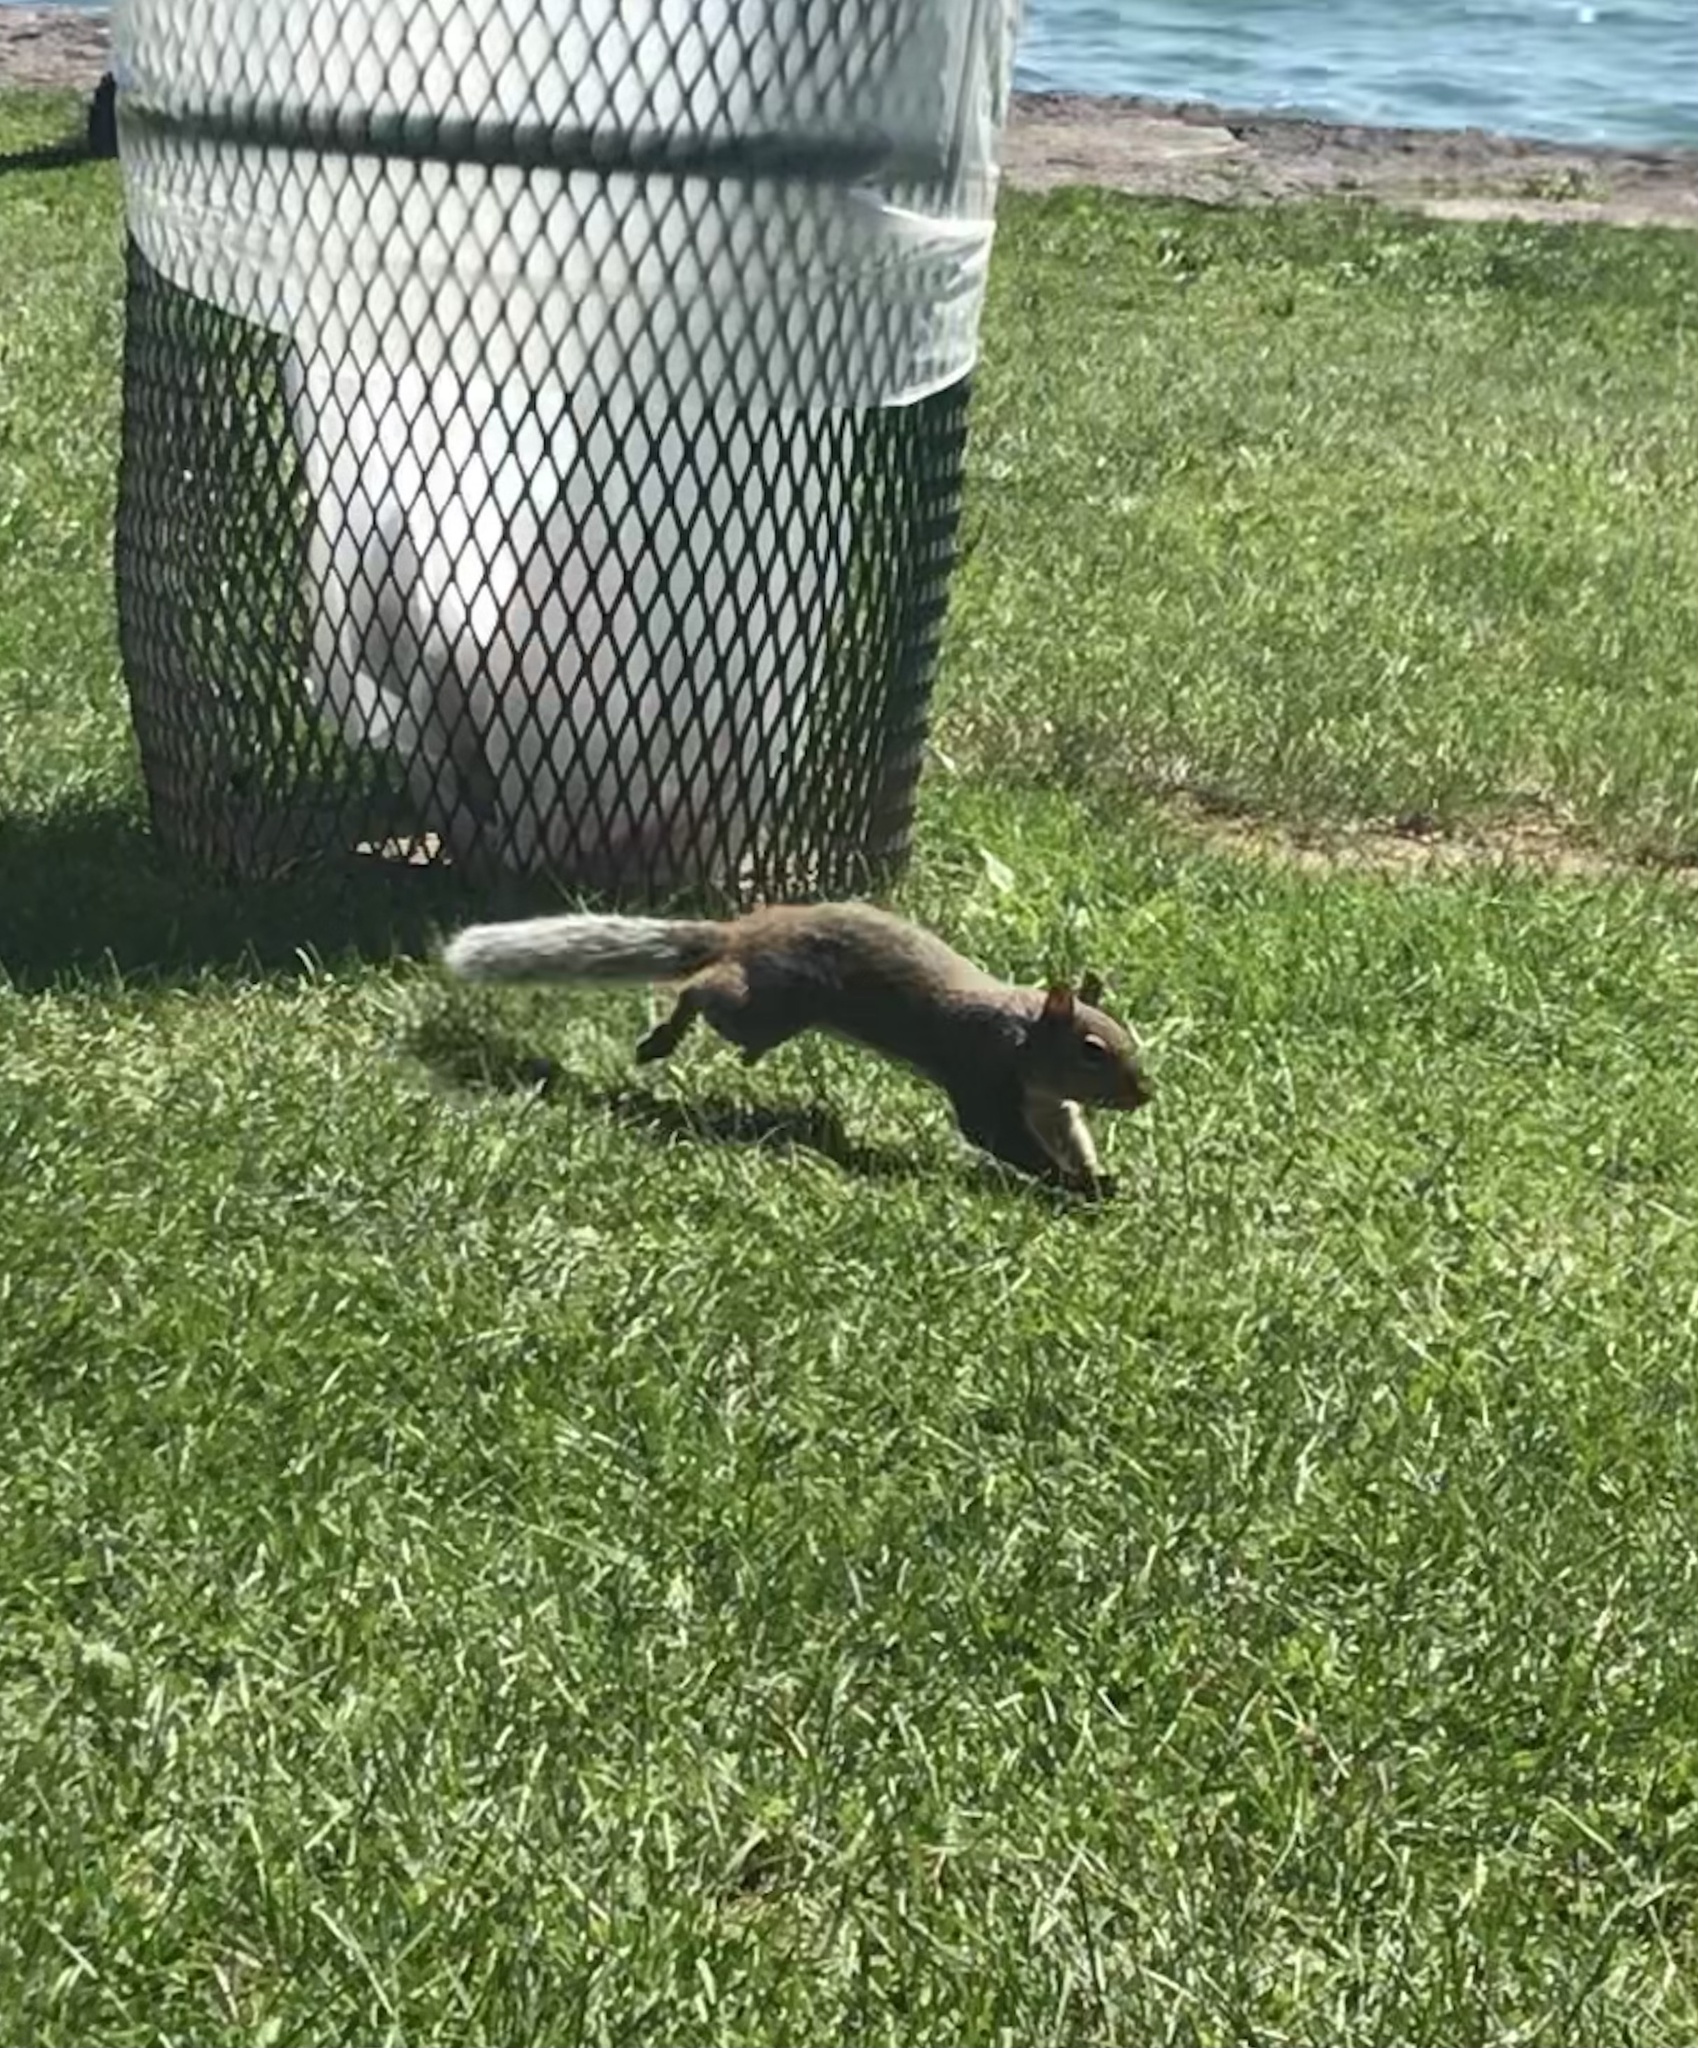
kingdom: Animalia
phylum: Chordata
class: Mammalia
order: Rodentia
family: Sciuridae
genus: Sciurus
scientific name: Sciurus carolinensis
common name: Eastern gray squirrel
